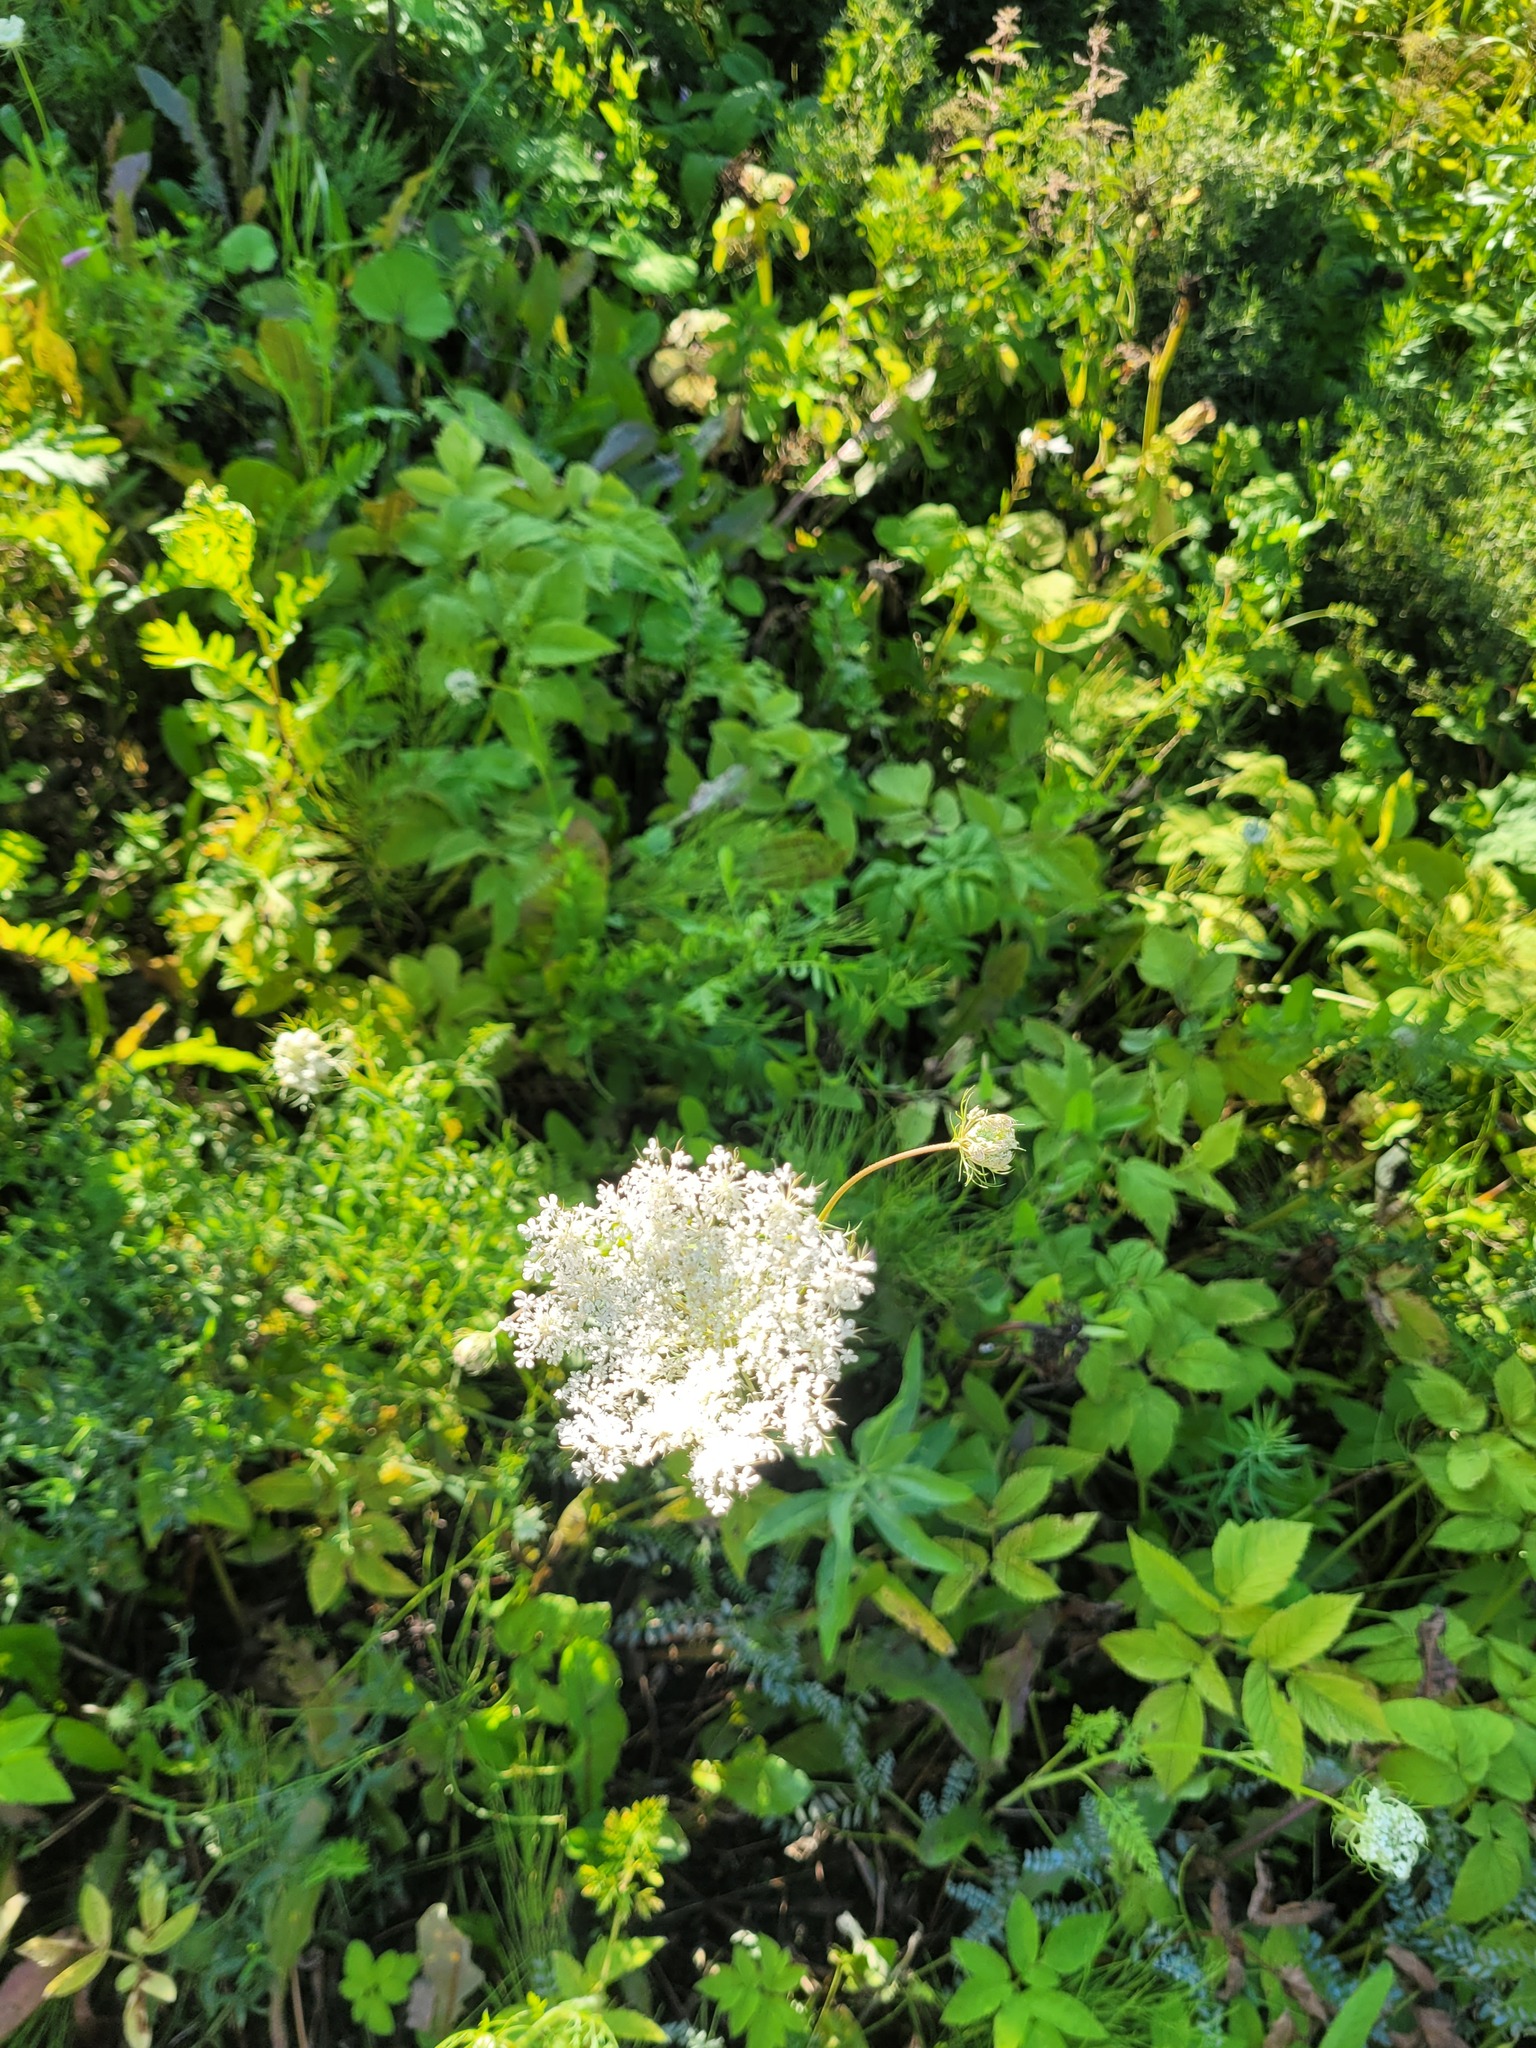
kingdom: Plantae
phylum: Tracheophyta
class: Magnoliopsida
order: Apiales
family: Apiaceae
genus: Daucus
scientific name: Daucus carota
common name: Wild carrot
